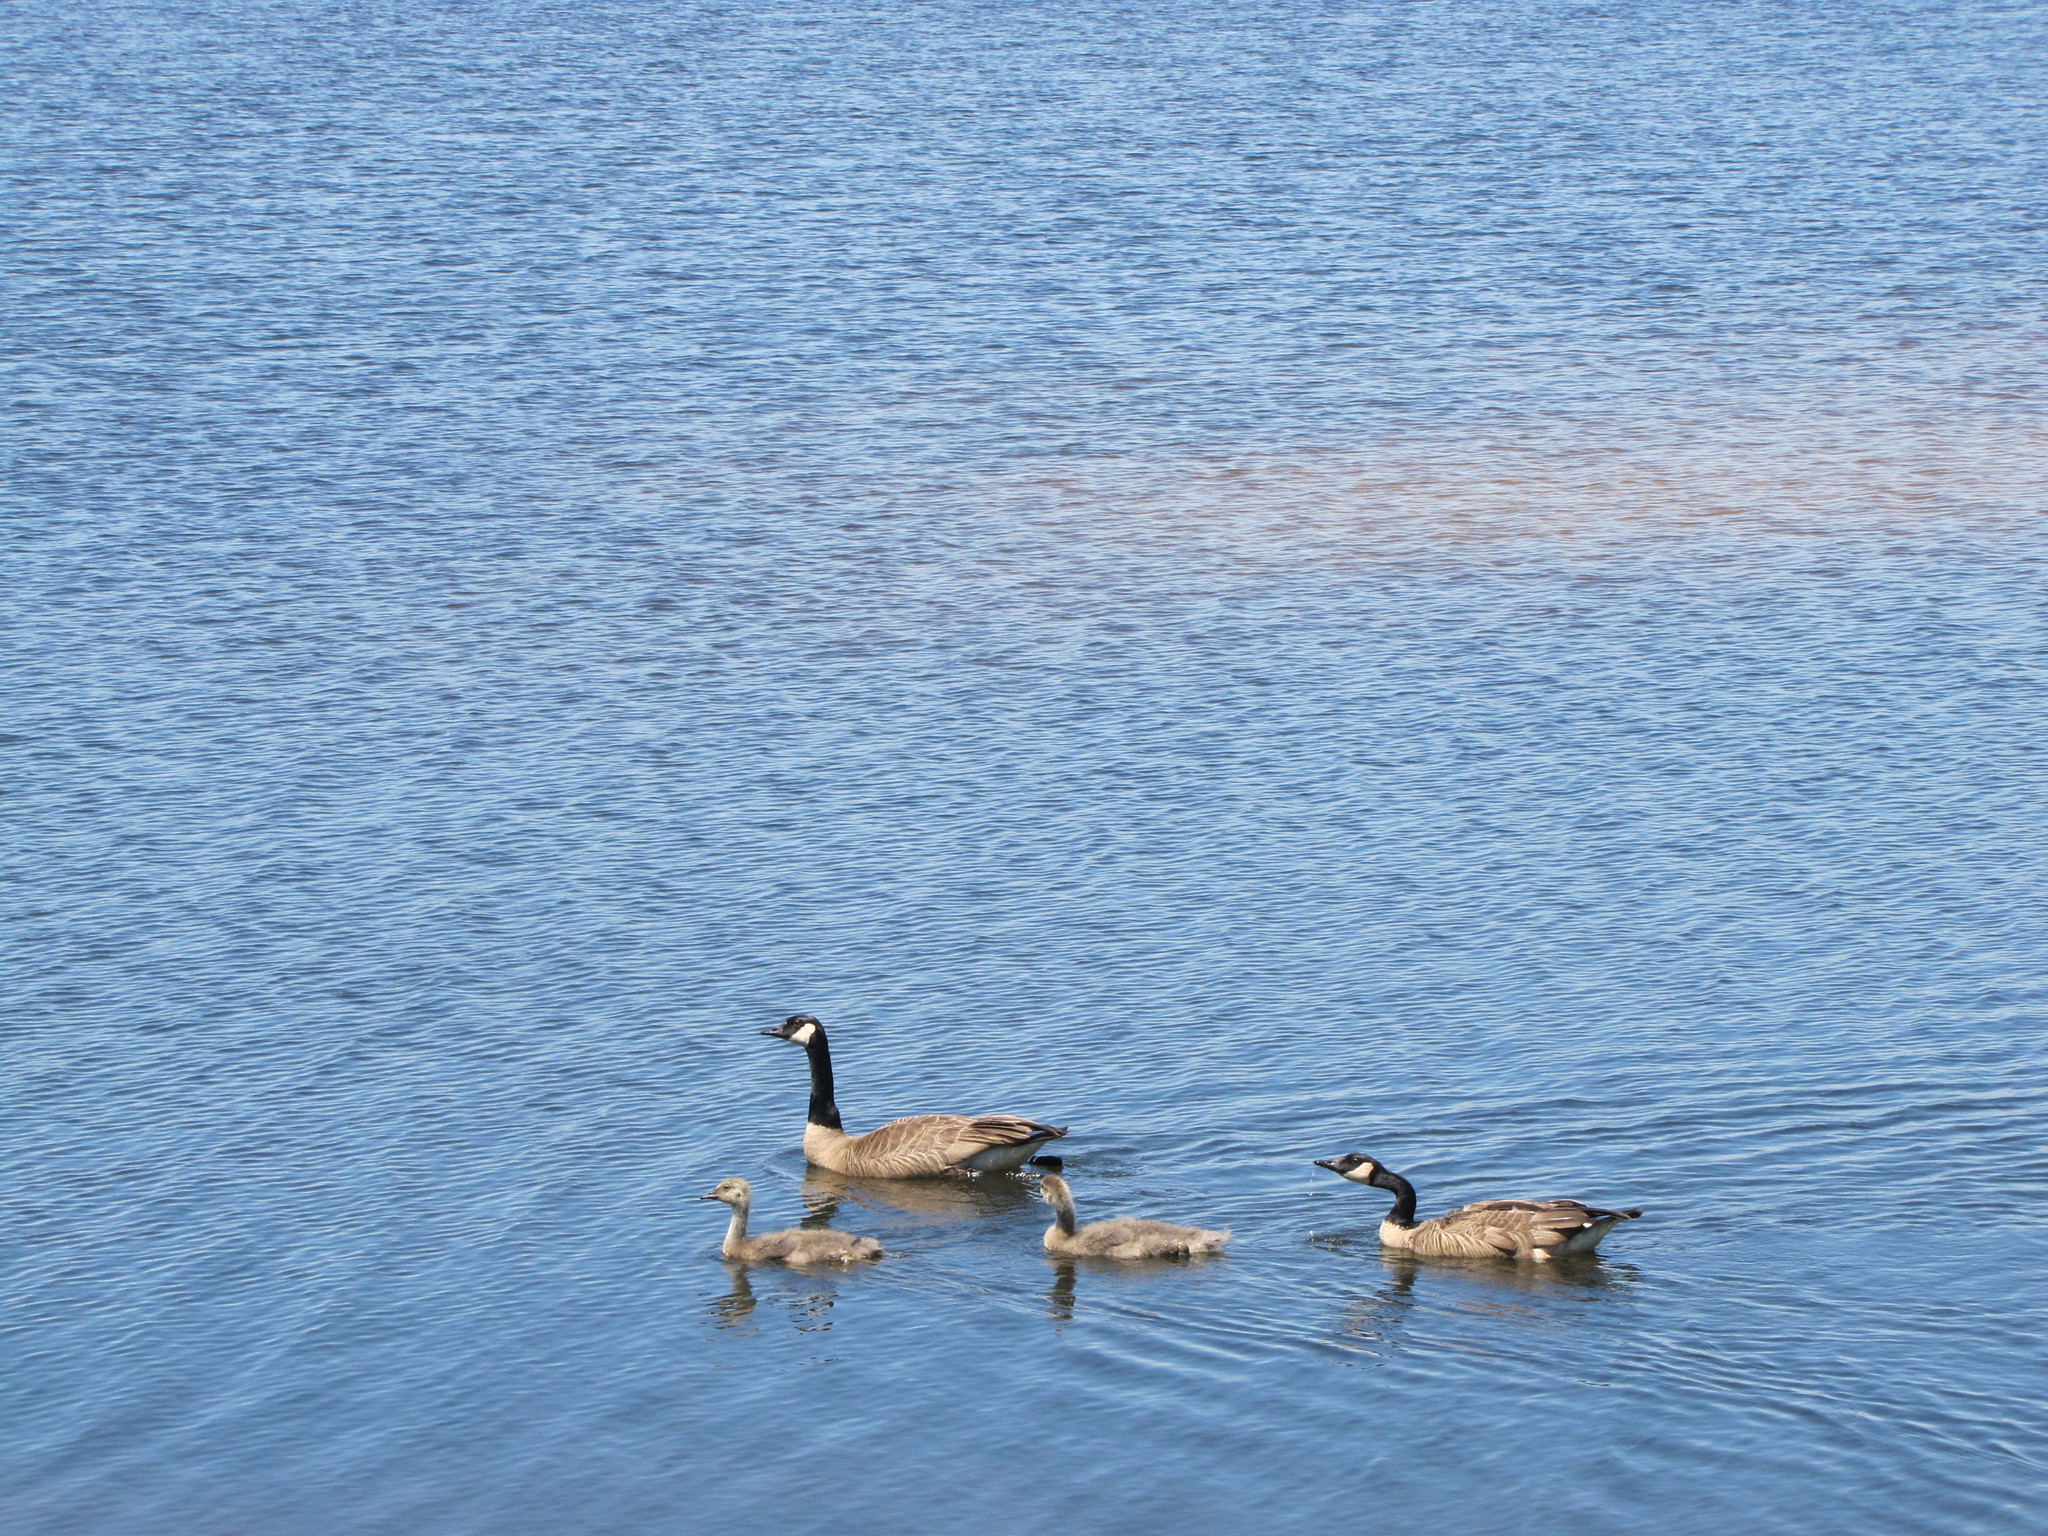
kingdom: Animalia
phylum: Chordata
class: Aves
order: Anseriformes
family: Anatidae
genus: Branta
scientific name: Branta canadensis
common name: Canada goose
